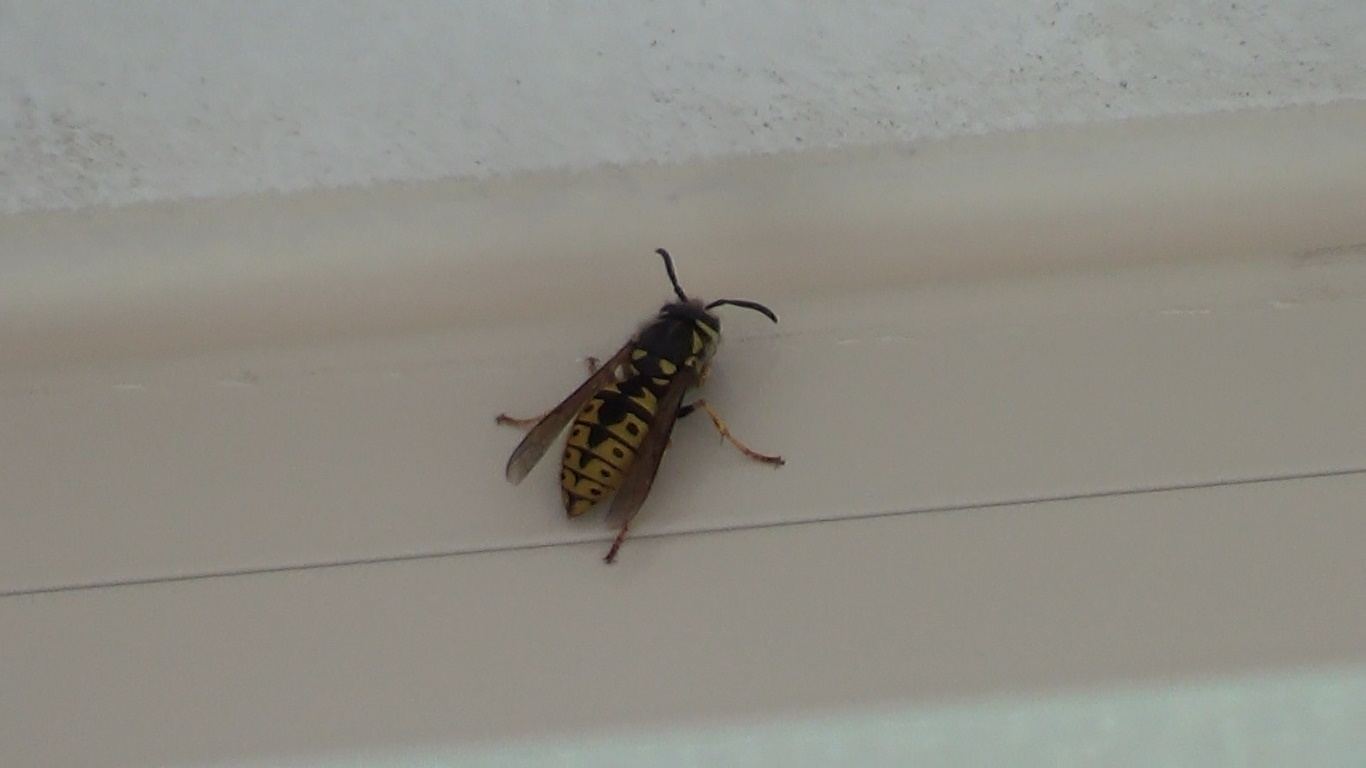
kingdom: Animalia
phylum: Arthropoda
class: Insecta
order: Hymenoptera
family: Vespidae
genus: Vespula
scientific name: Vespula germanica
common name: German wasp
